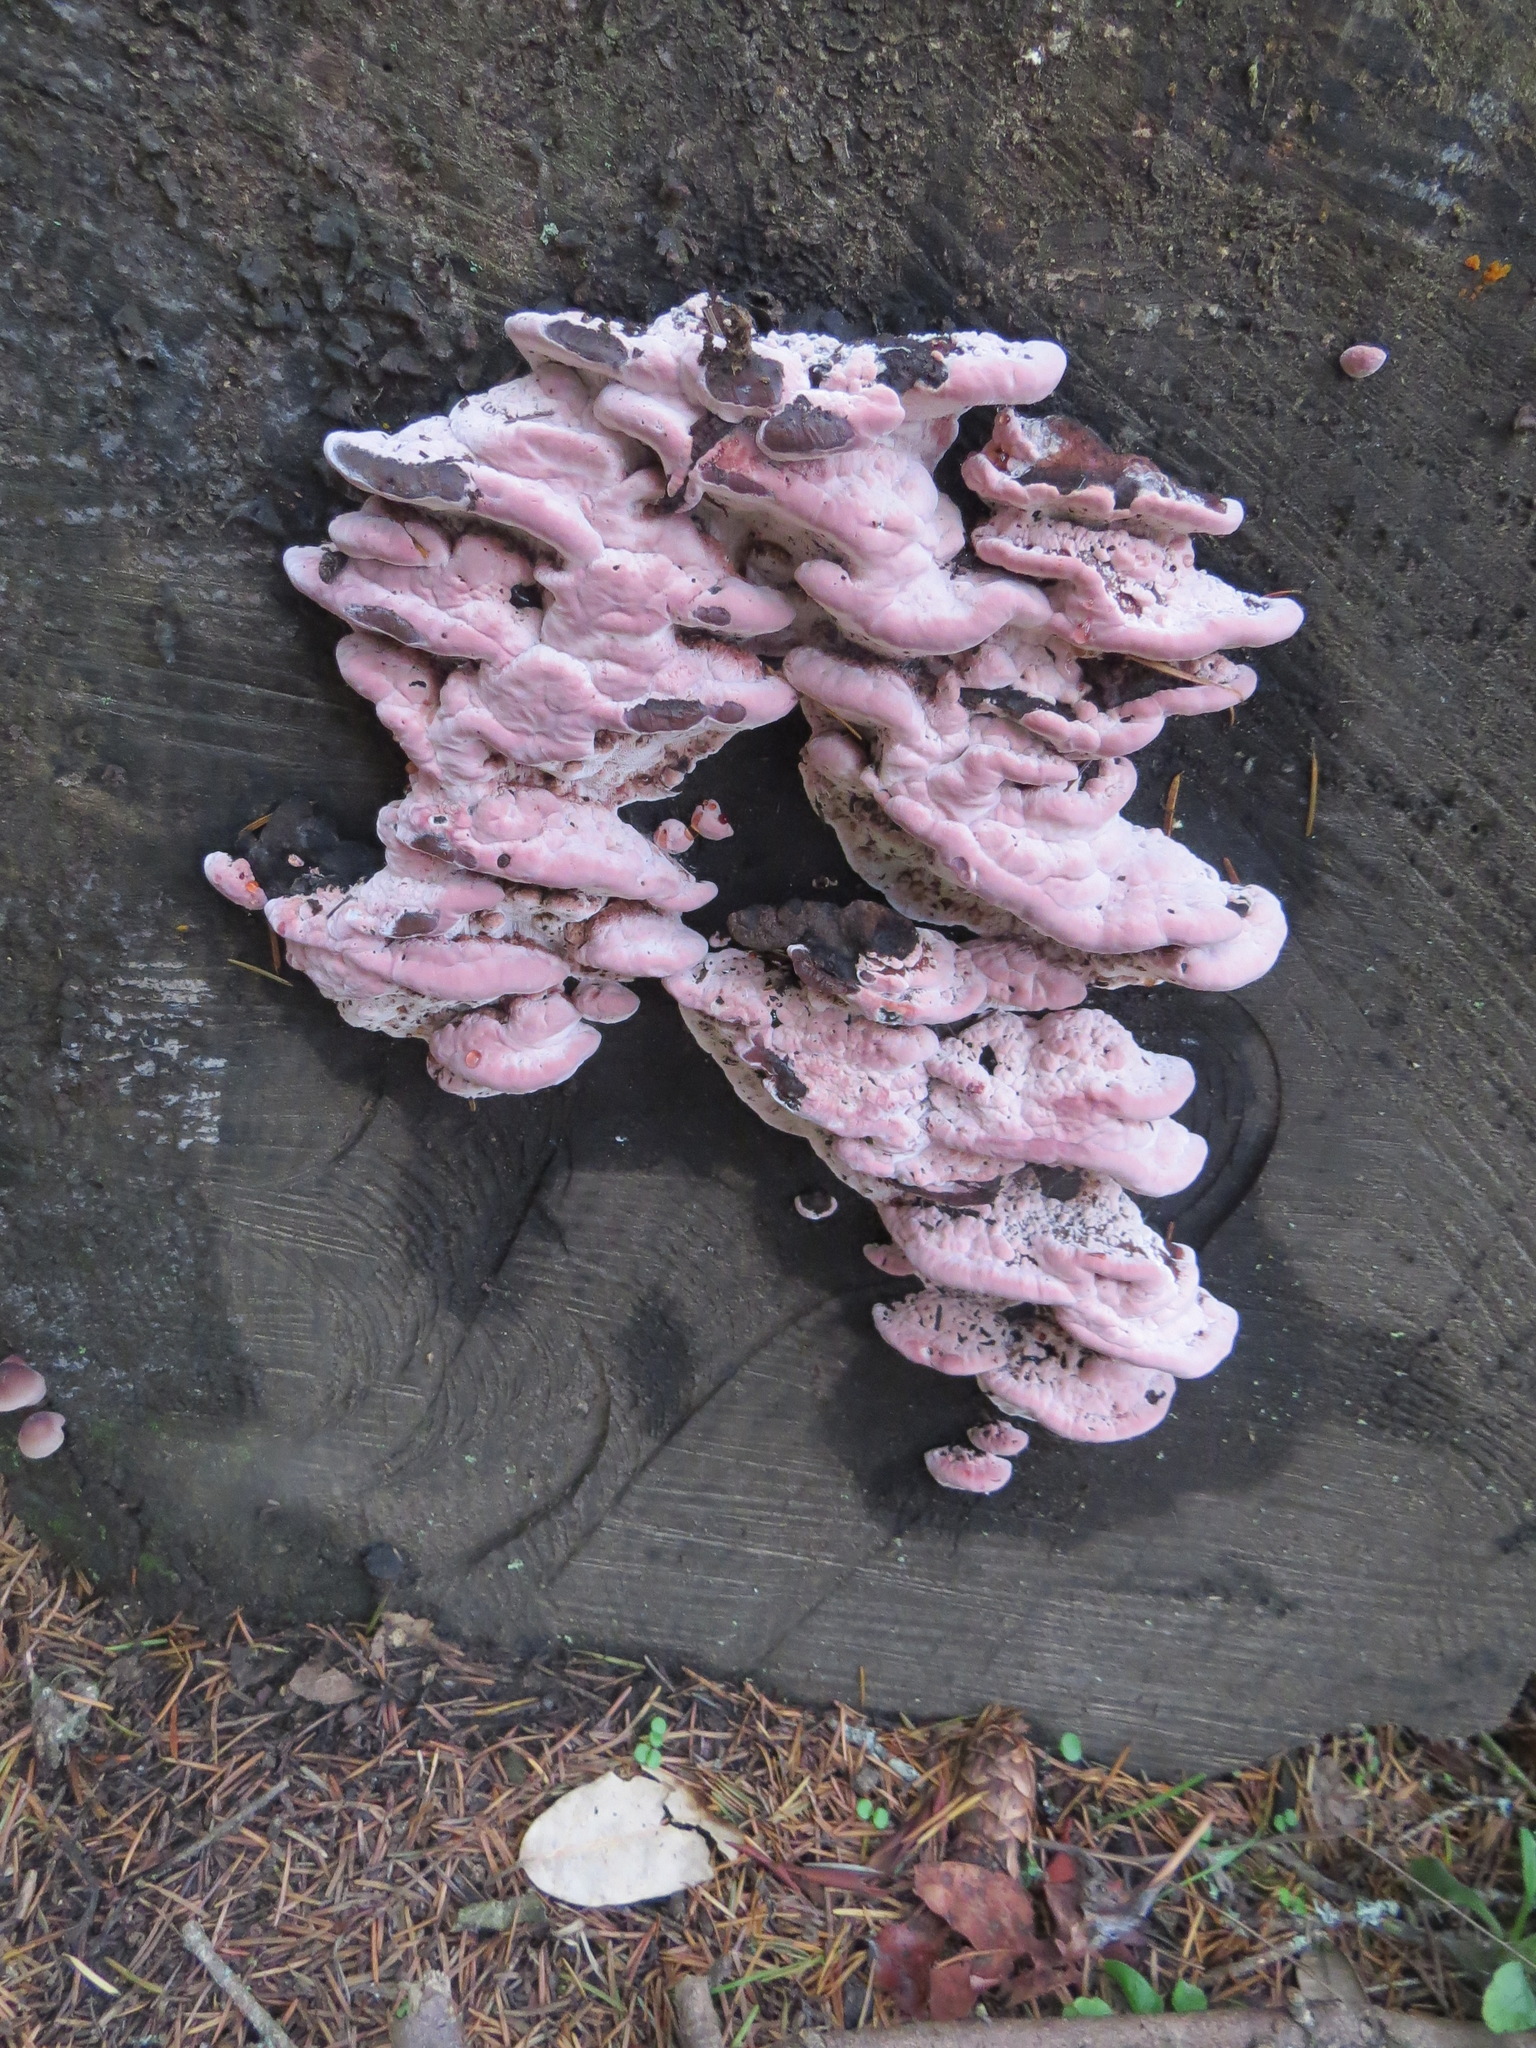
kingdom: Fungi
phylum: Basidiomycota
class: Agaricomycetes
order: Polyporales
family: Fomitopsidaceae
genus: Rhodofomes
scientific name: Rhodofomes cajanderi
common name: Rosy conk
